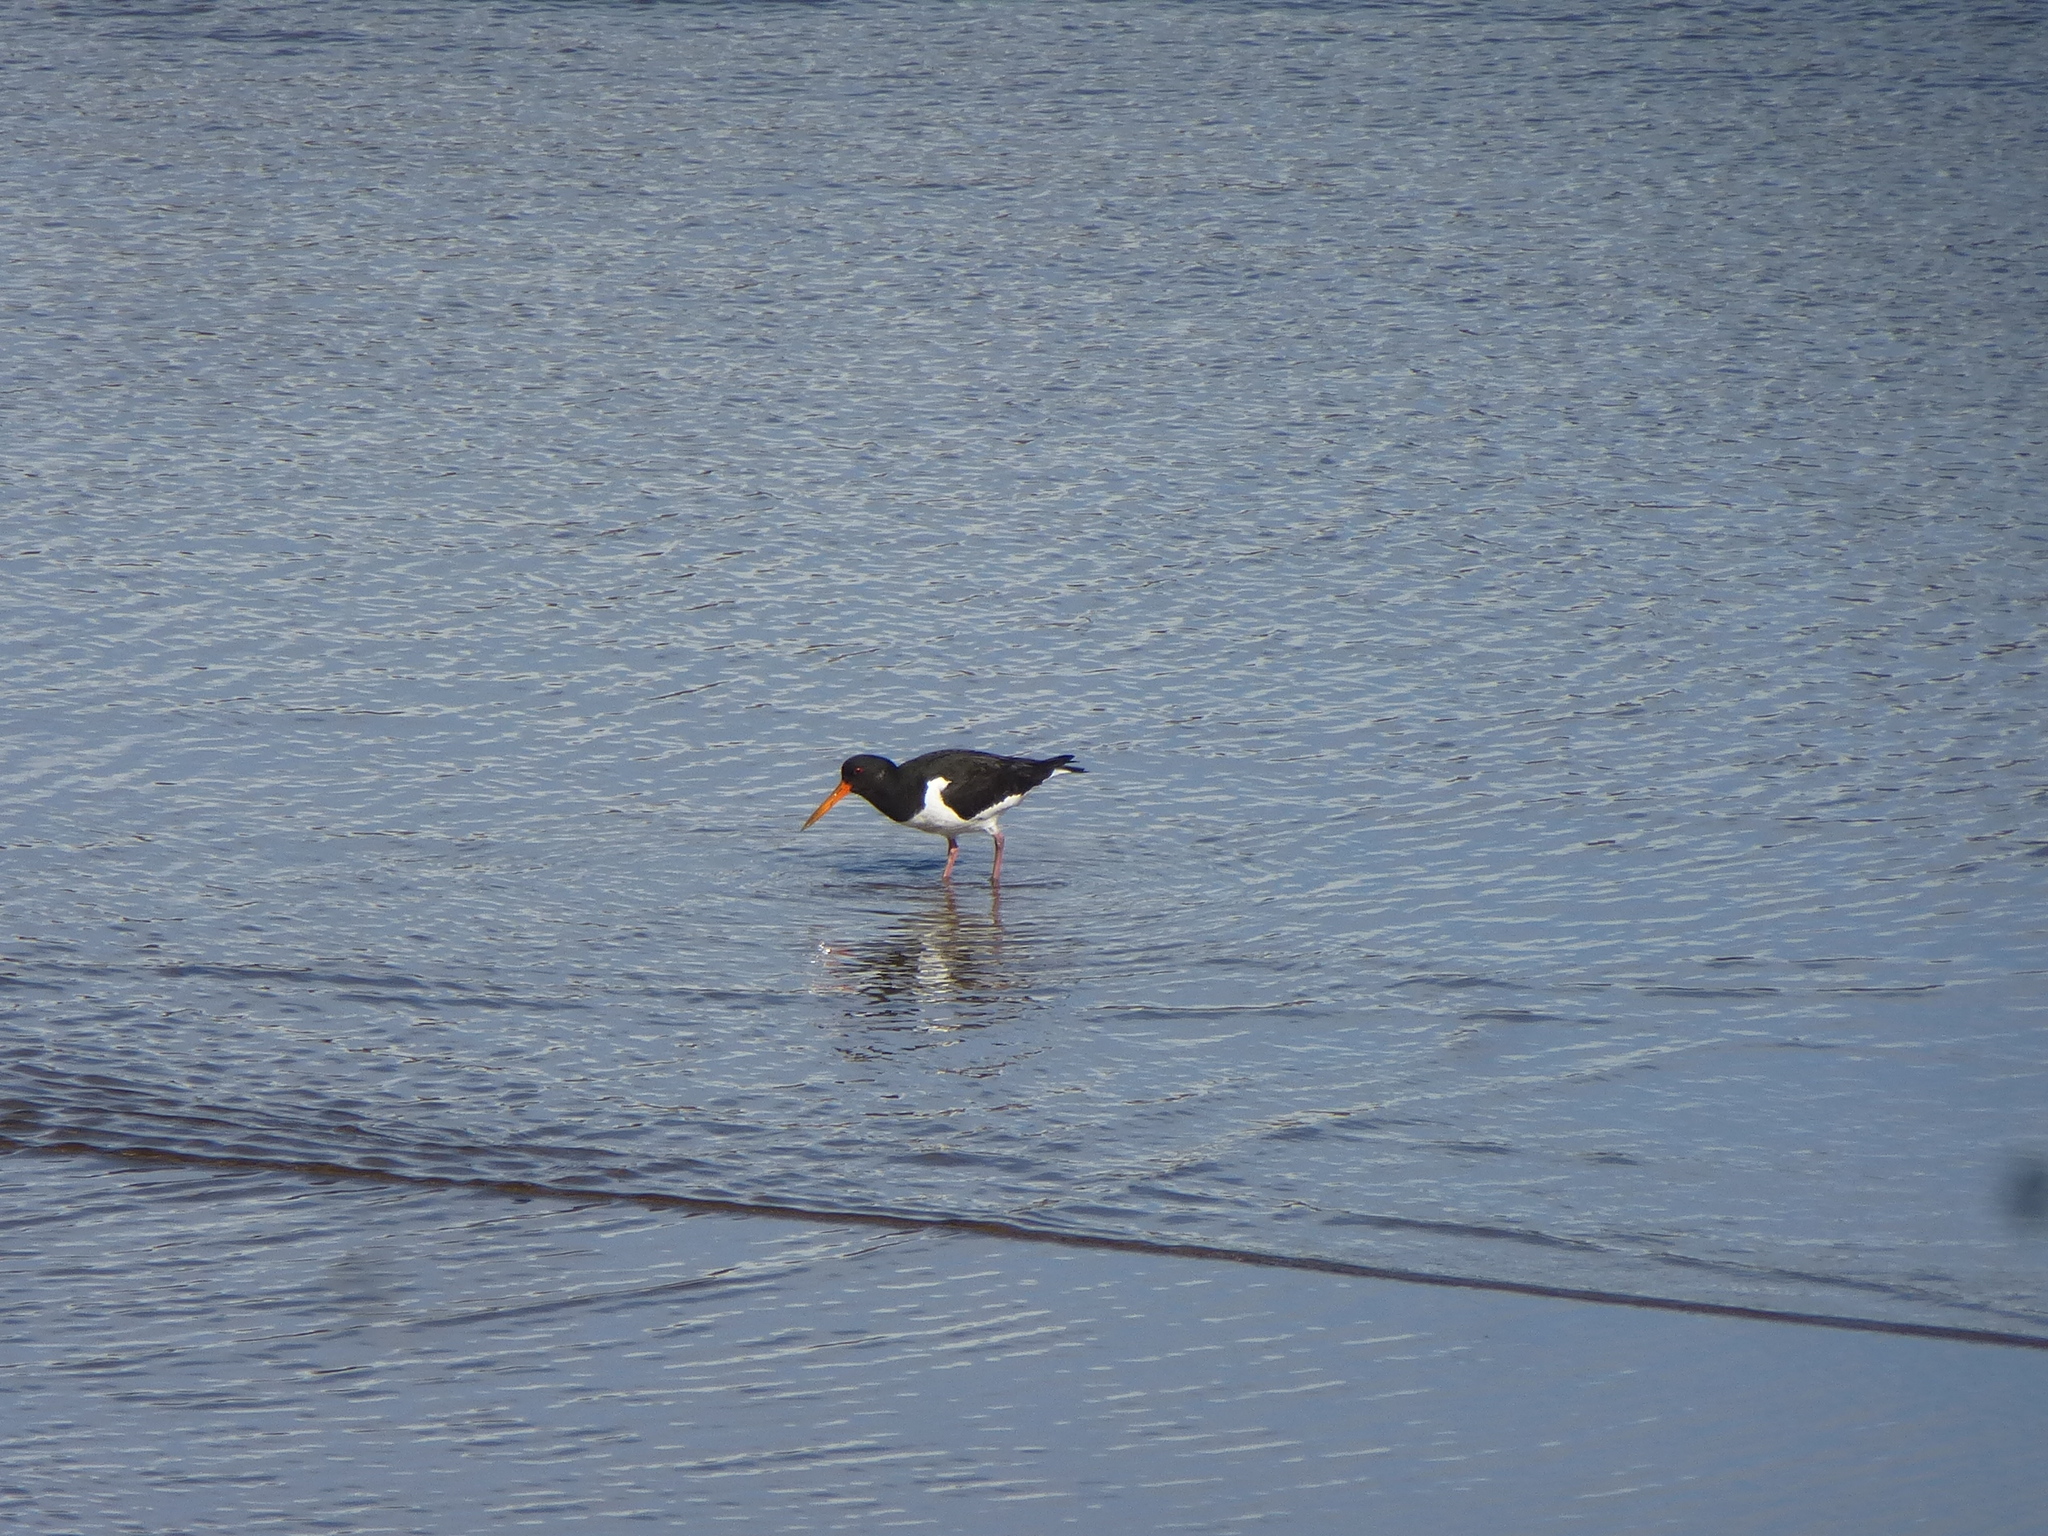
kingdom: Animalia
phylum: Chordata
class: Aves
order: Charadriiformes
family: Haematopodidae
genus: Haematopus
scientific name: Haematopus ostralegus
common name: Eurasian oystercatcher
